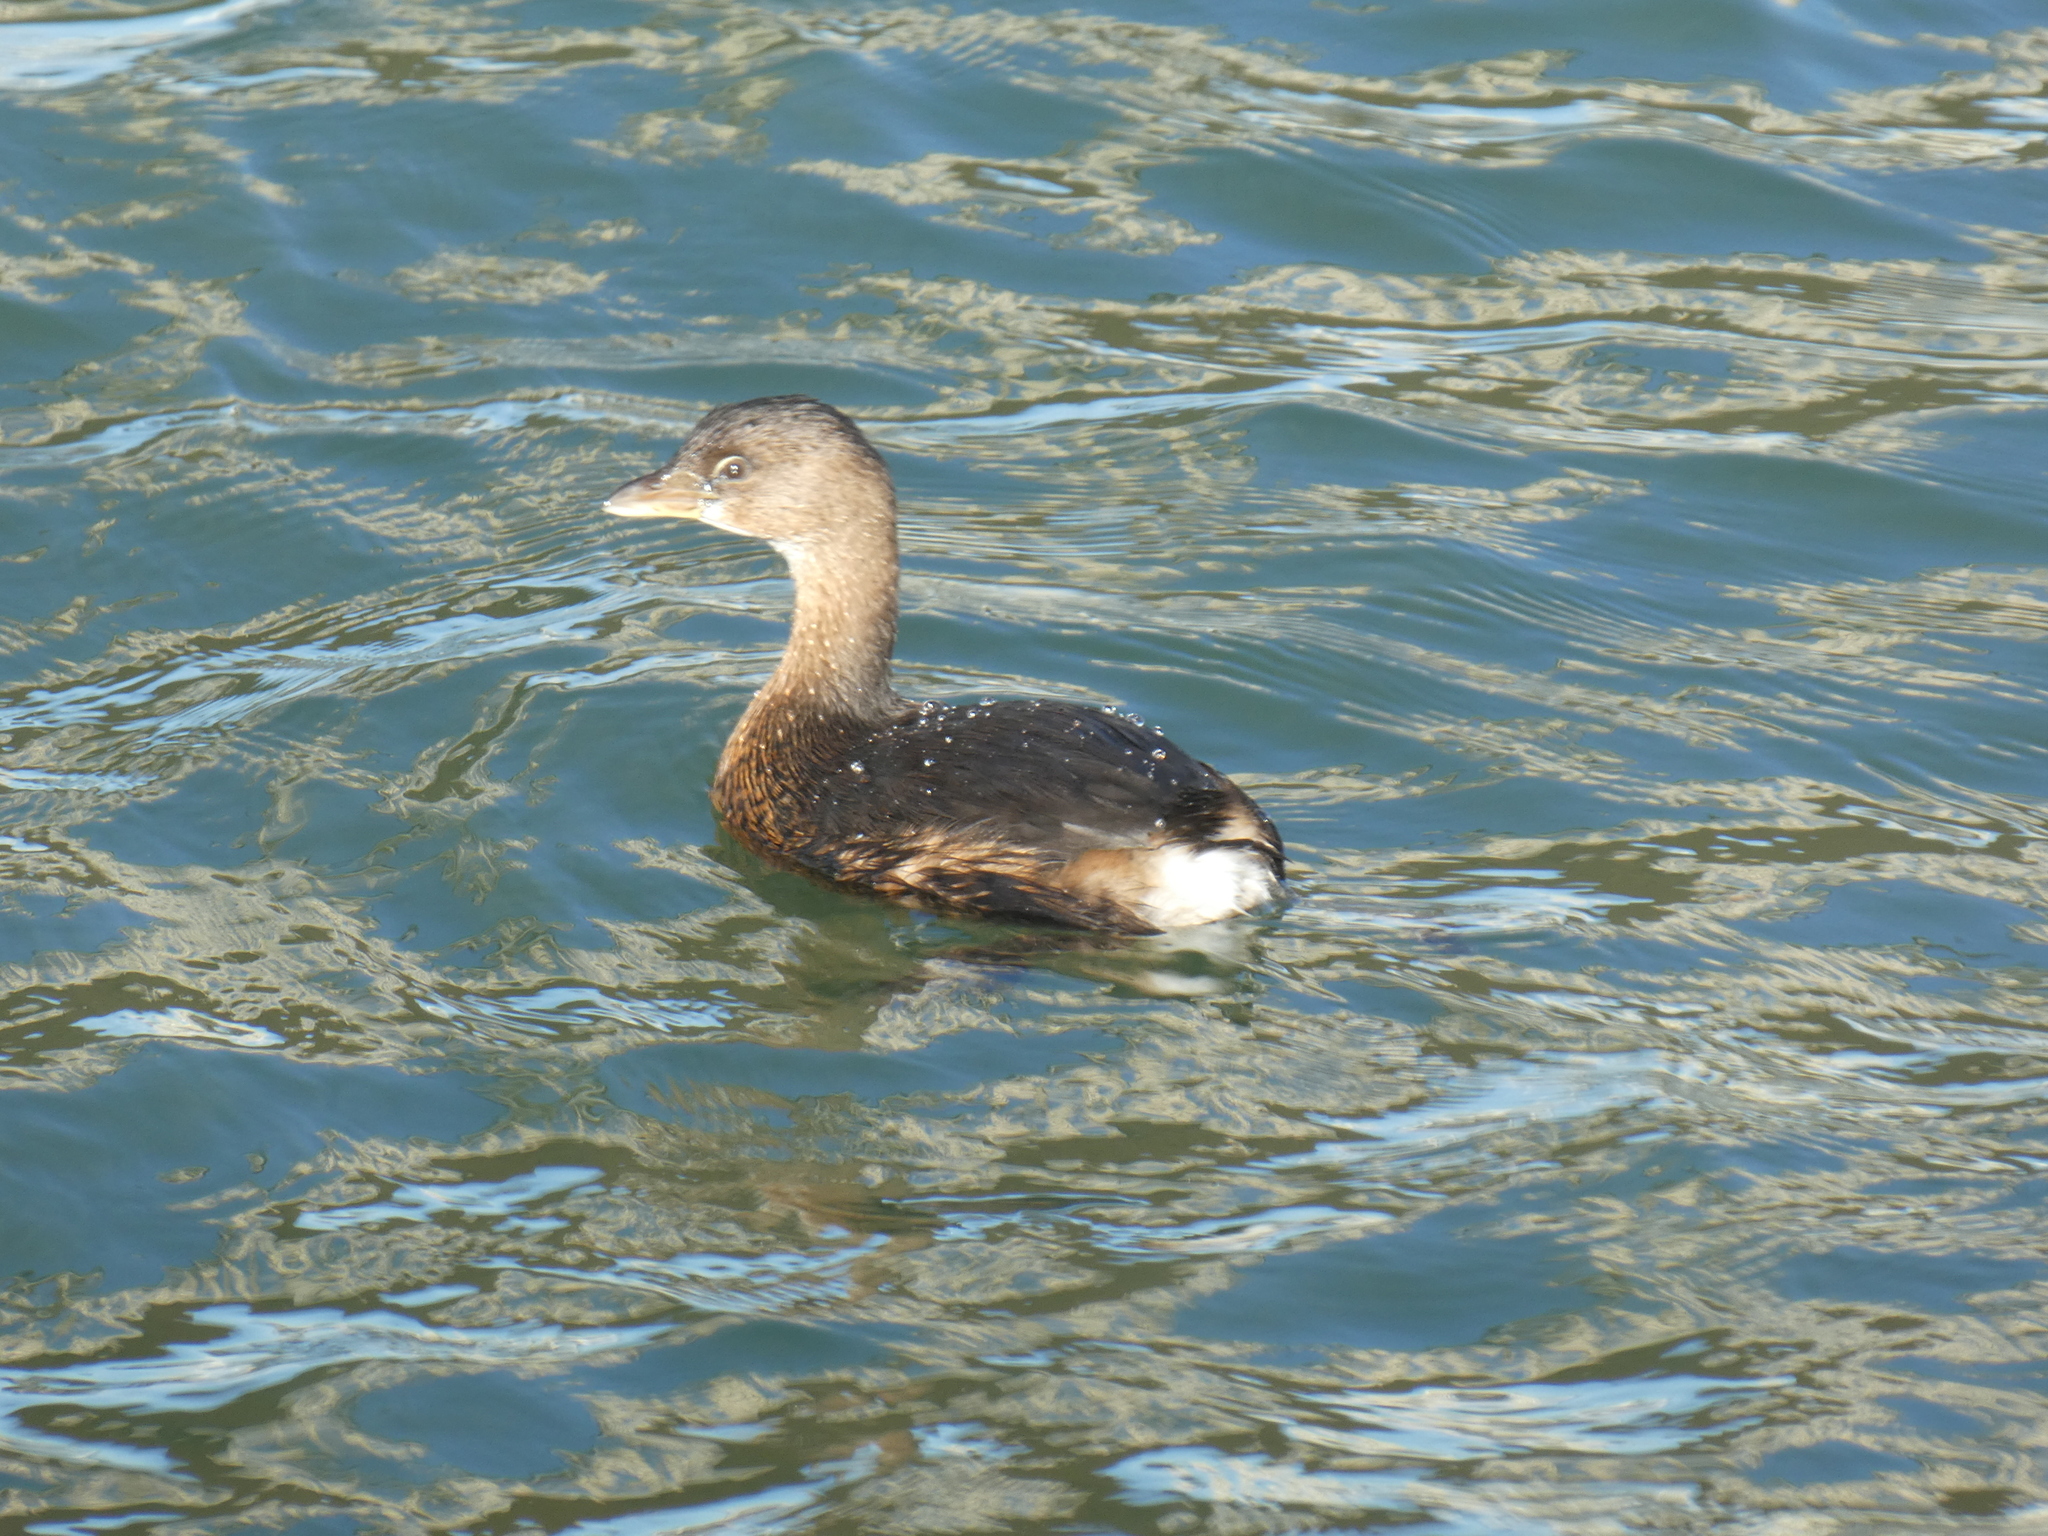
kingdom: Animalia
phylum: Chordata
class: Aves
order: Podicipediformes
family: Podicipedidae
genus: Podilymbus
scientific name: Podilymbus podiceps
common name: Pied-billed grebe
